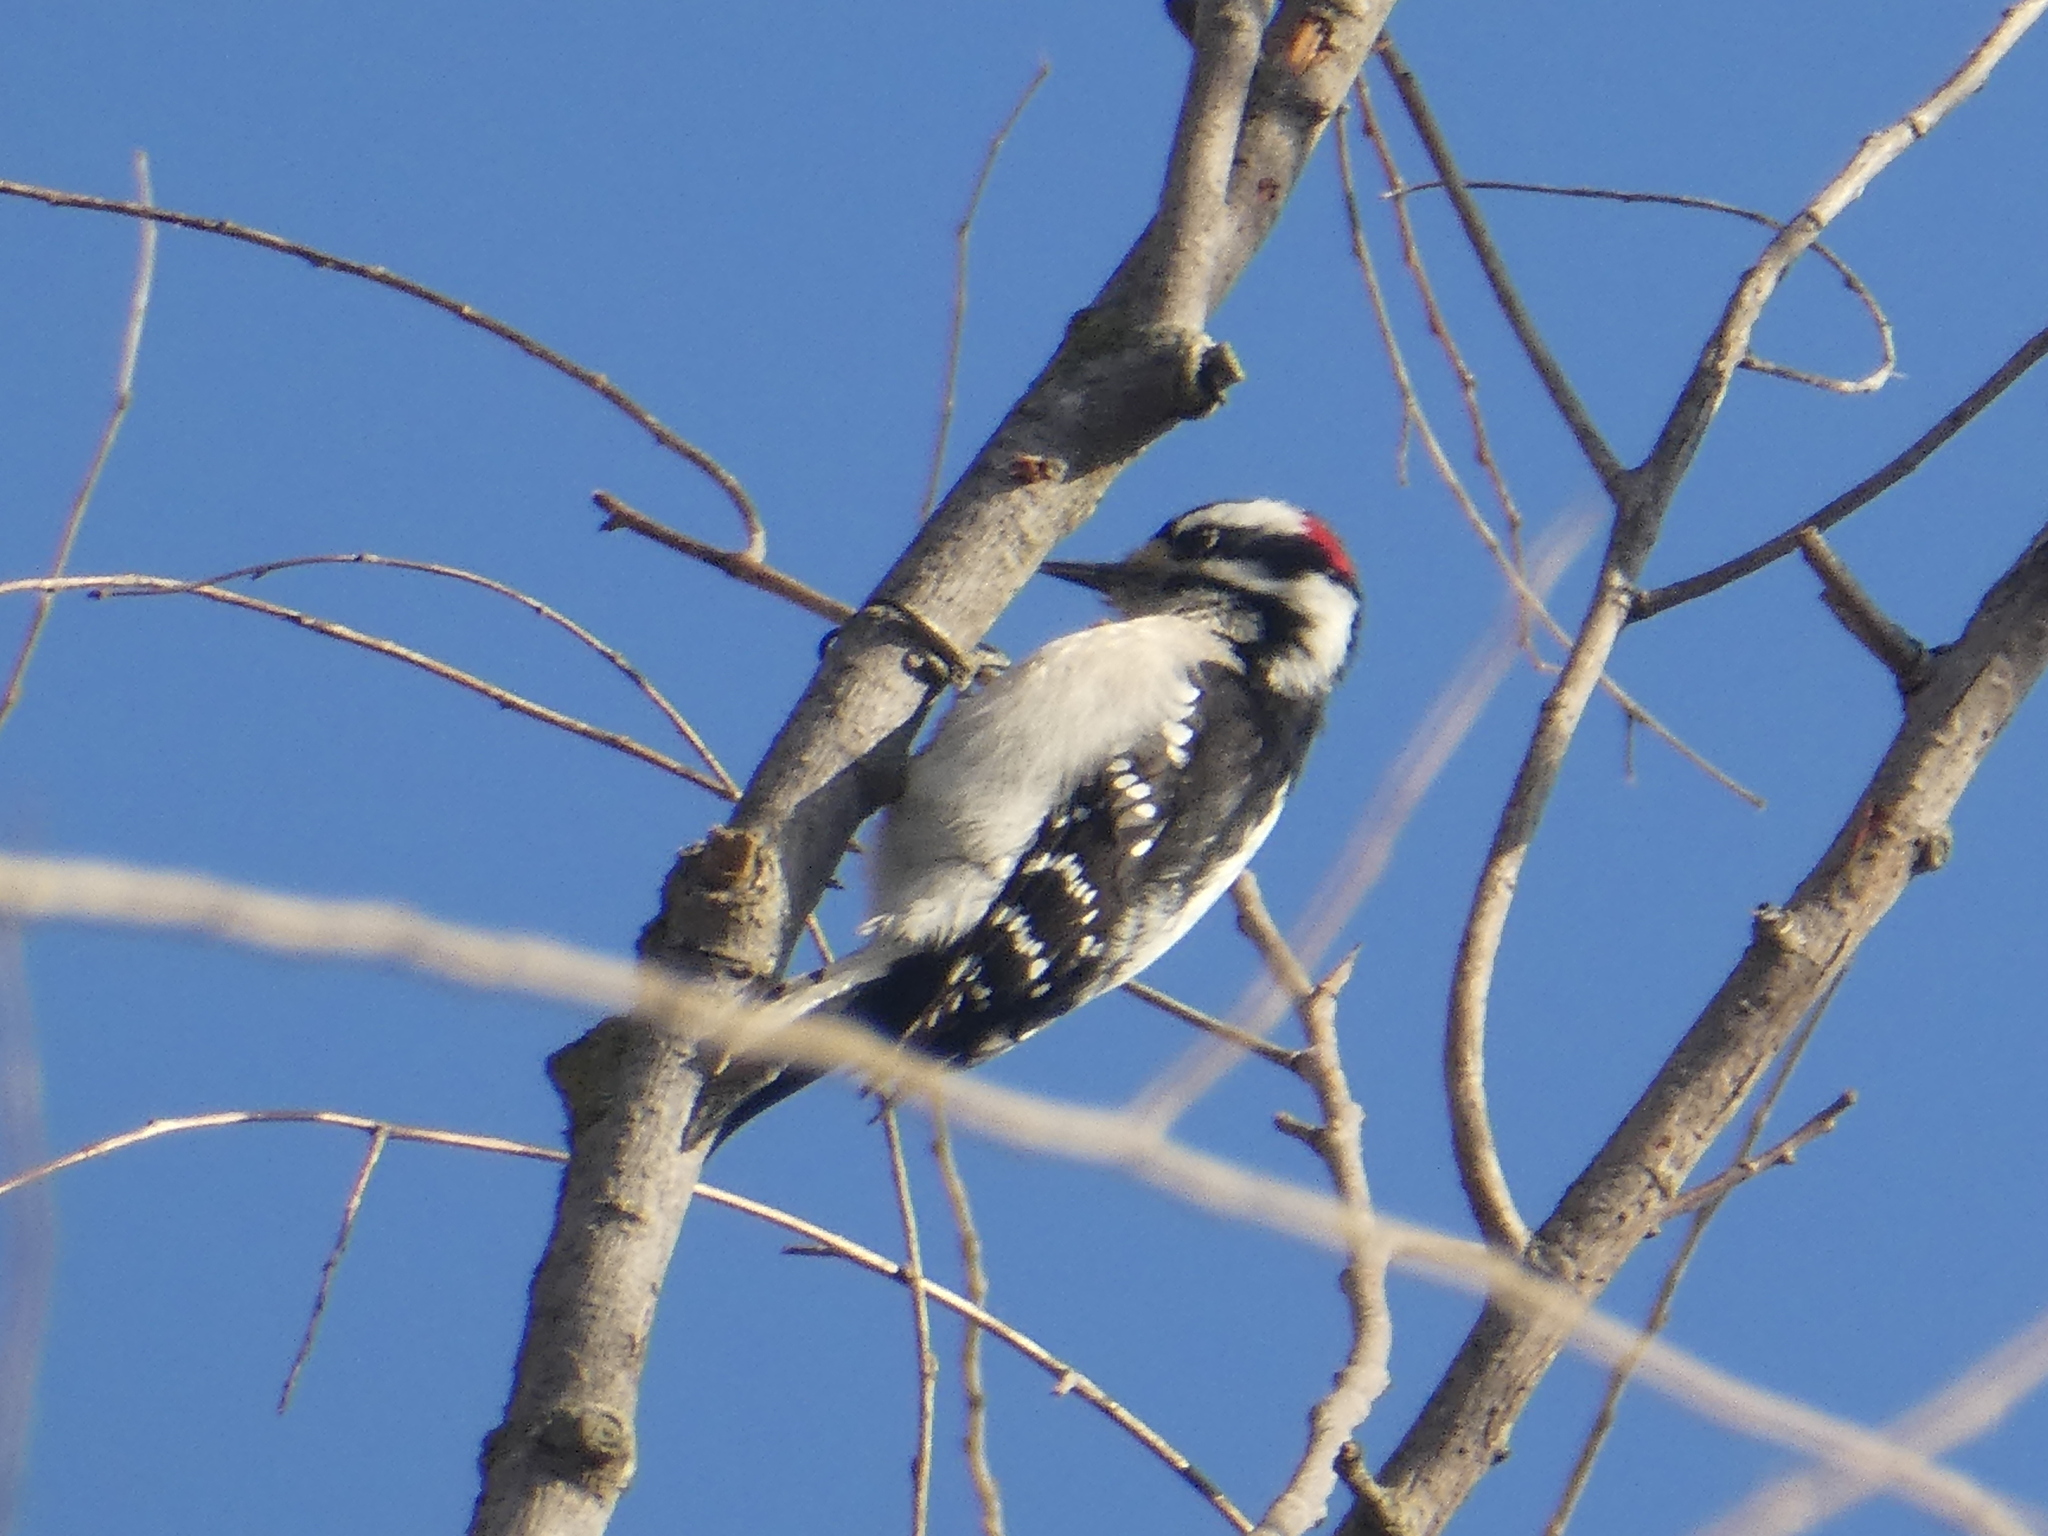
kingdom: Animalia
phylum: Chordata
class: Aves
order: Piciformes
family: Picidae
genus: Dryobates
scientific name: Dryobates pubescens
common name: Downy woodpecker
